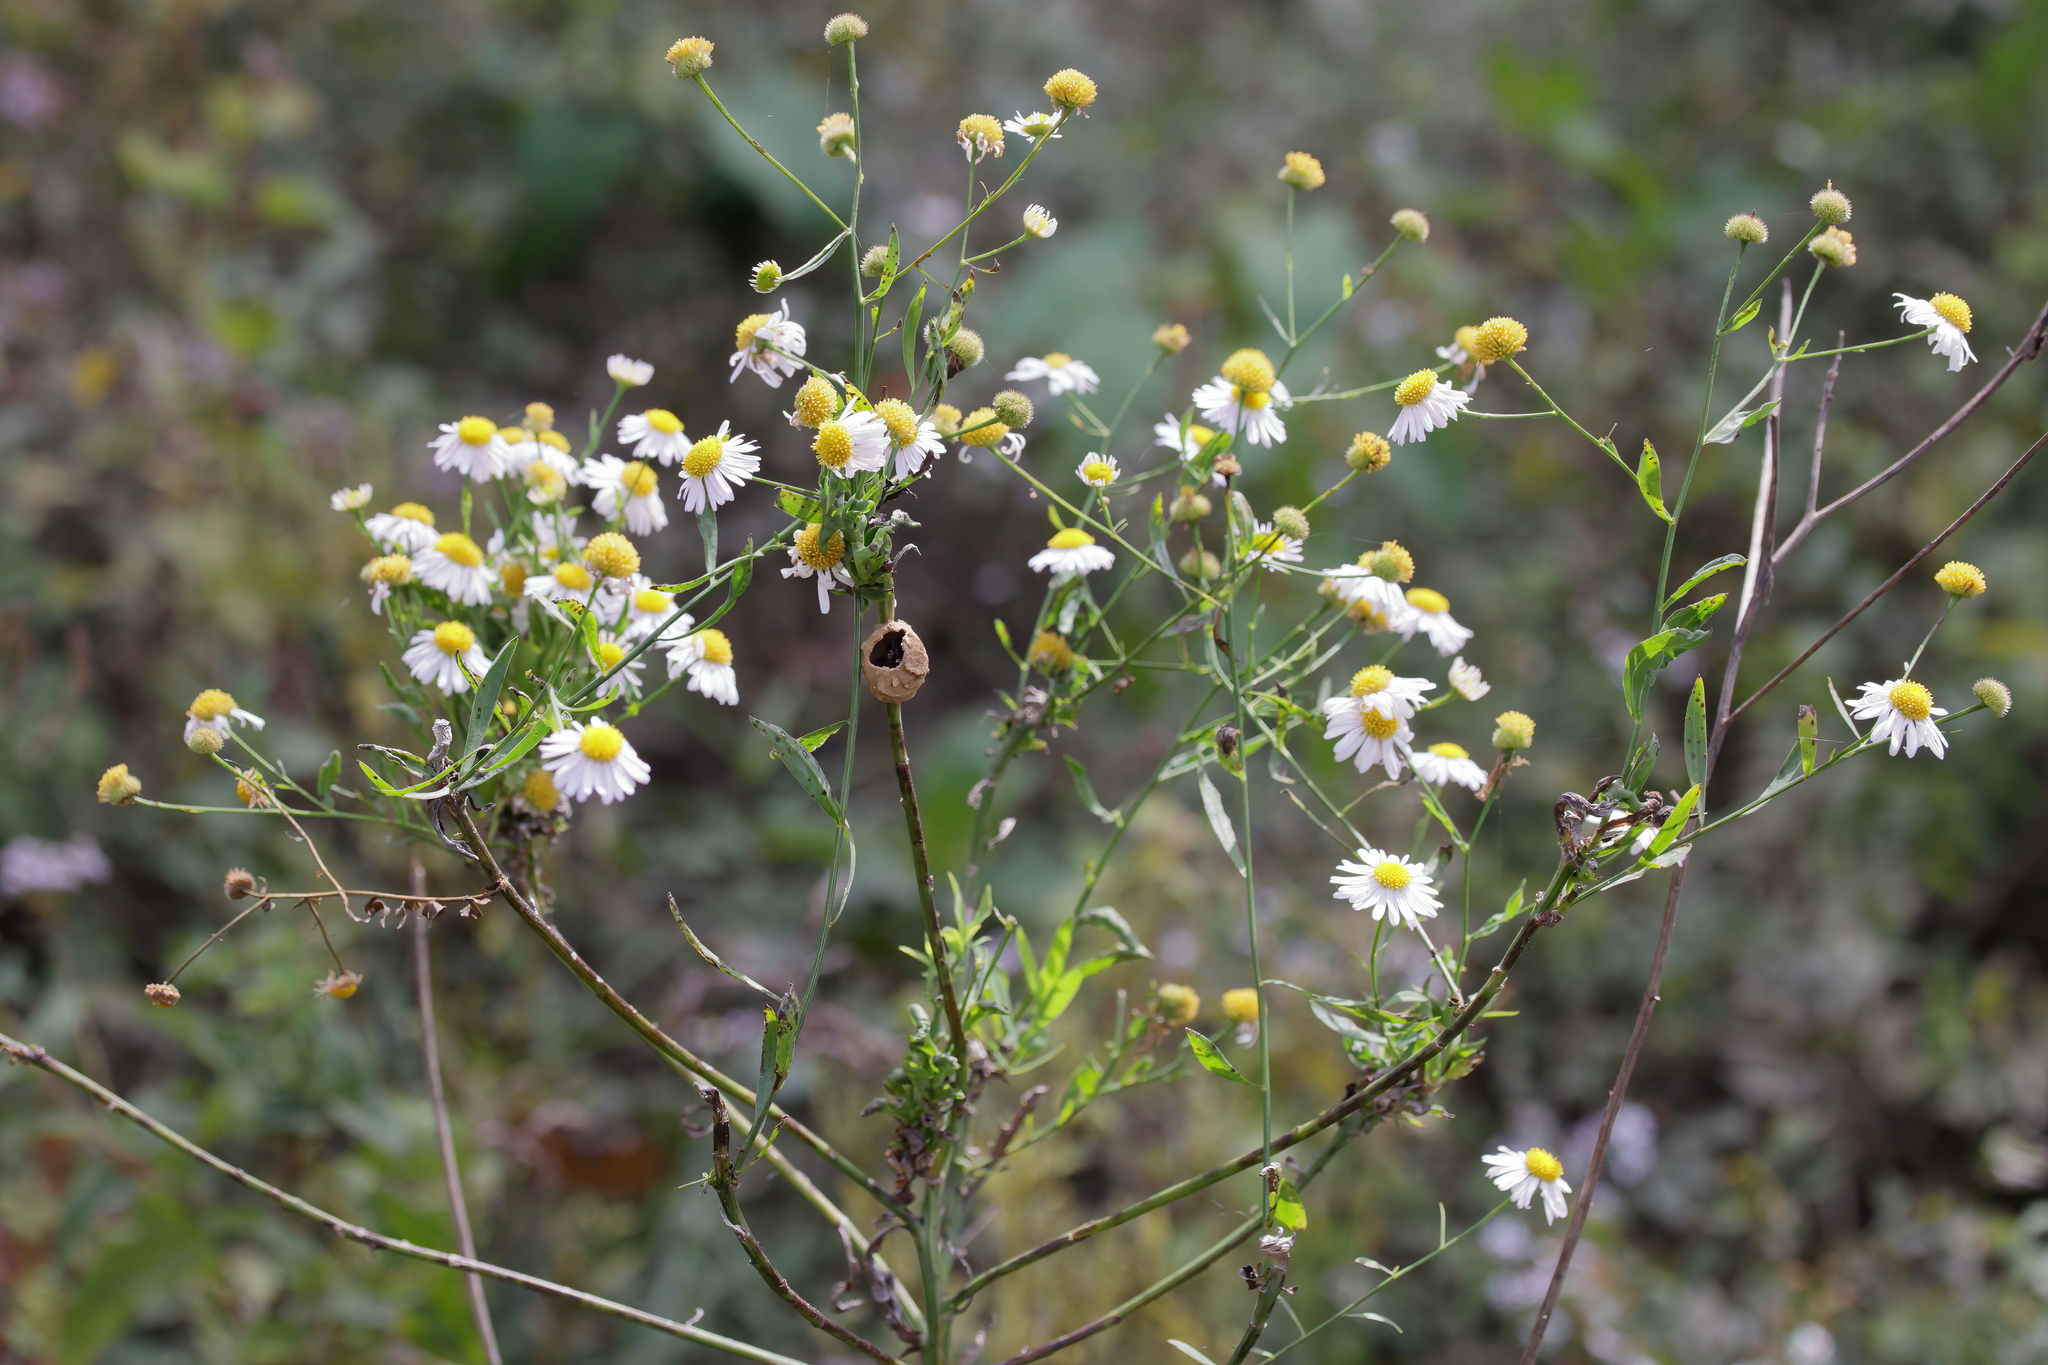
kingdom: Plantae
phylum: Tracheophyta
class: Magnoliopsida
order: Asterales
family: Asteraceae
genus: Boltonia
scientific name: Boltonia asteroides
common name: False chamomile
